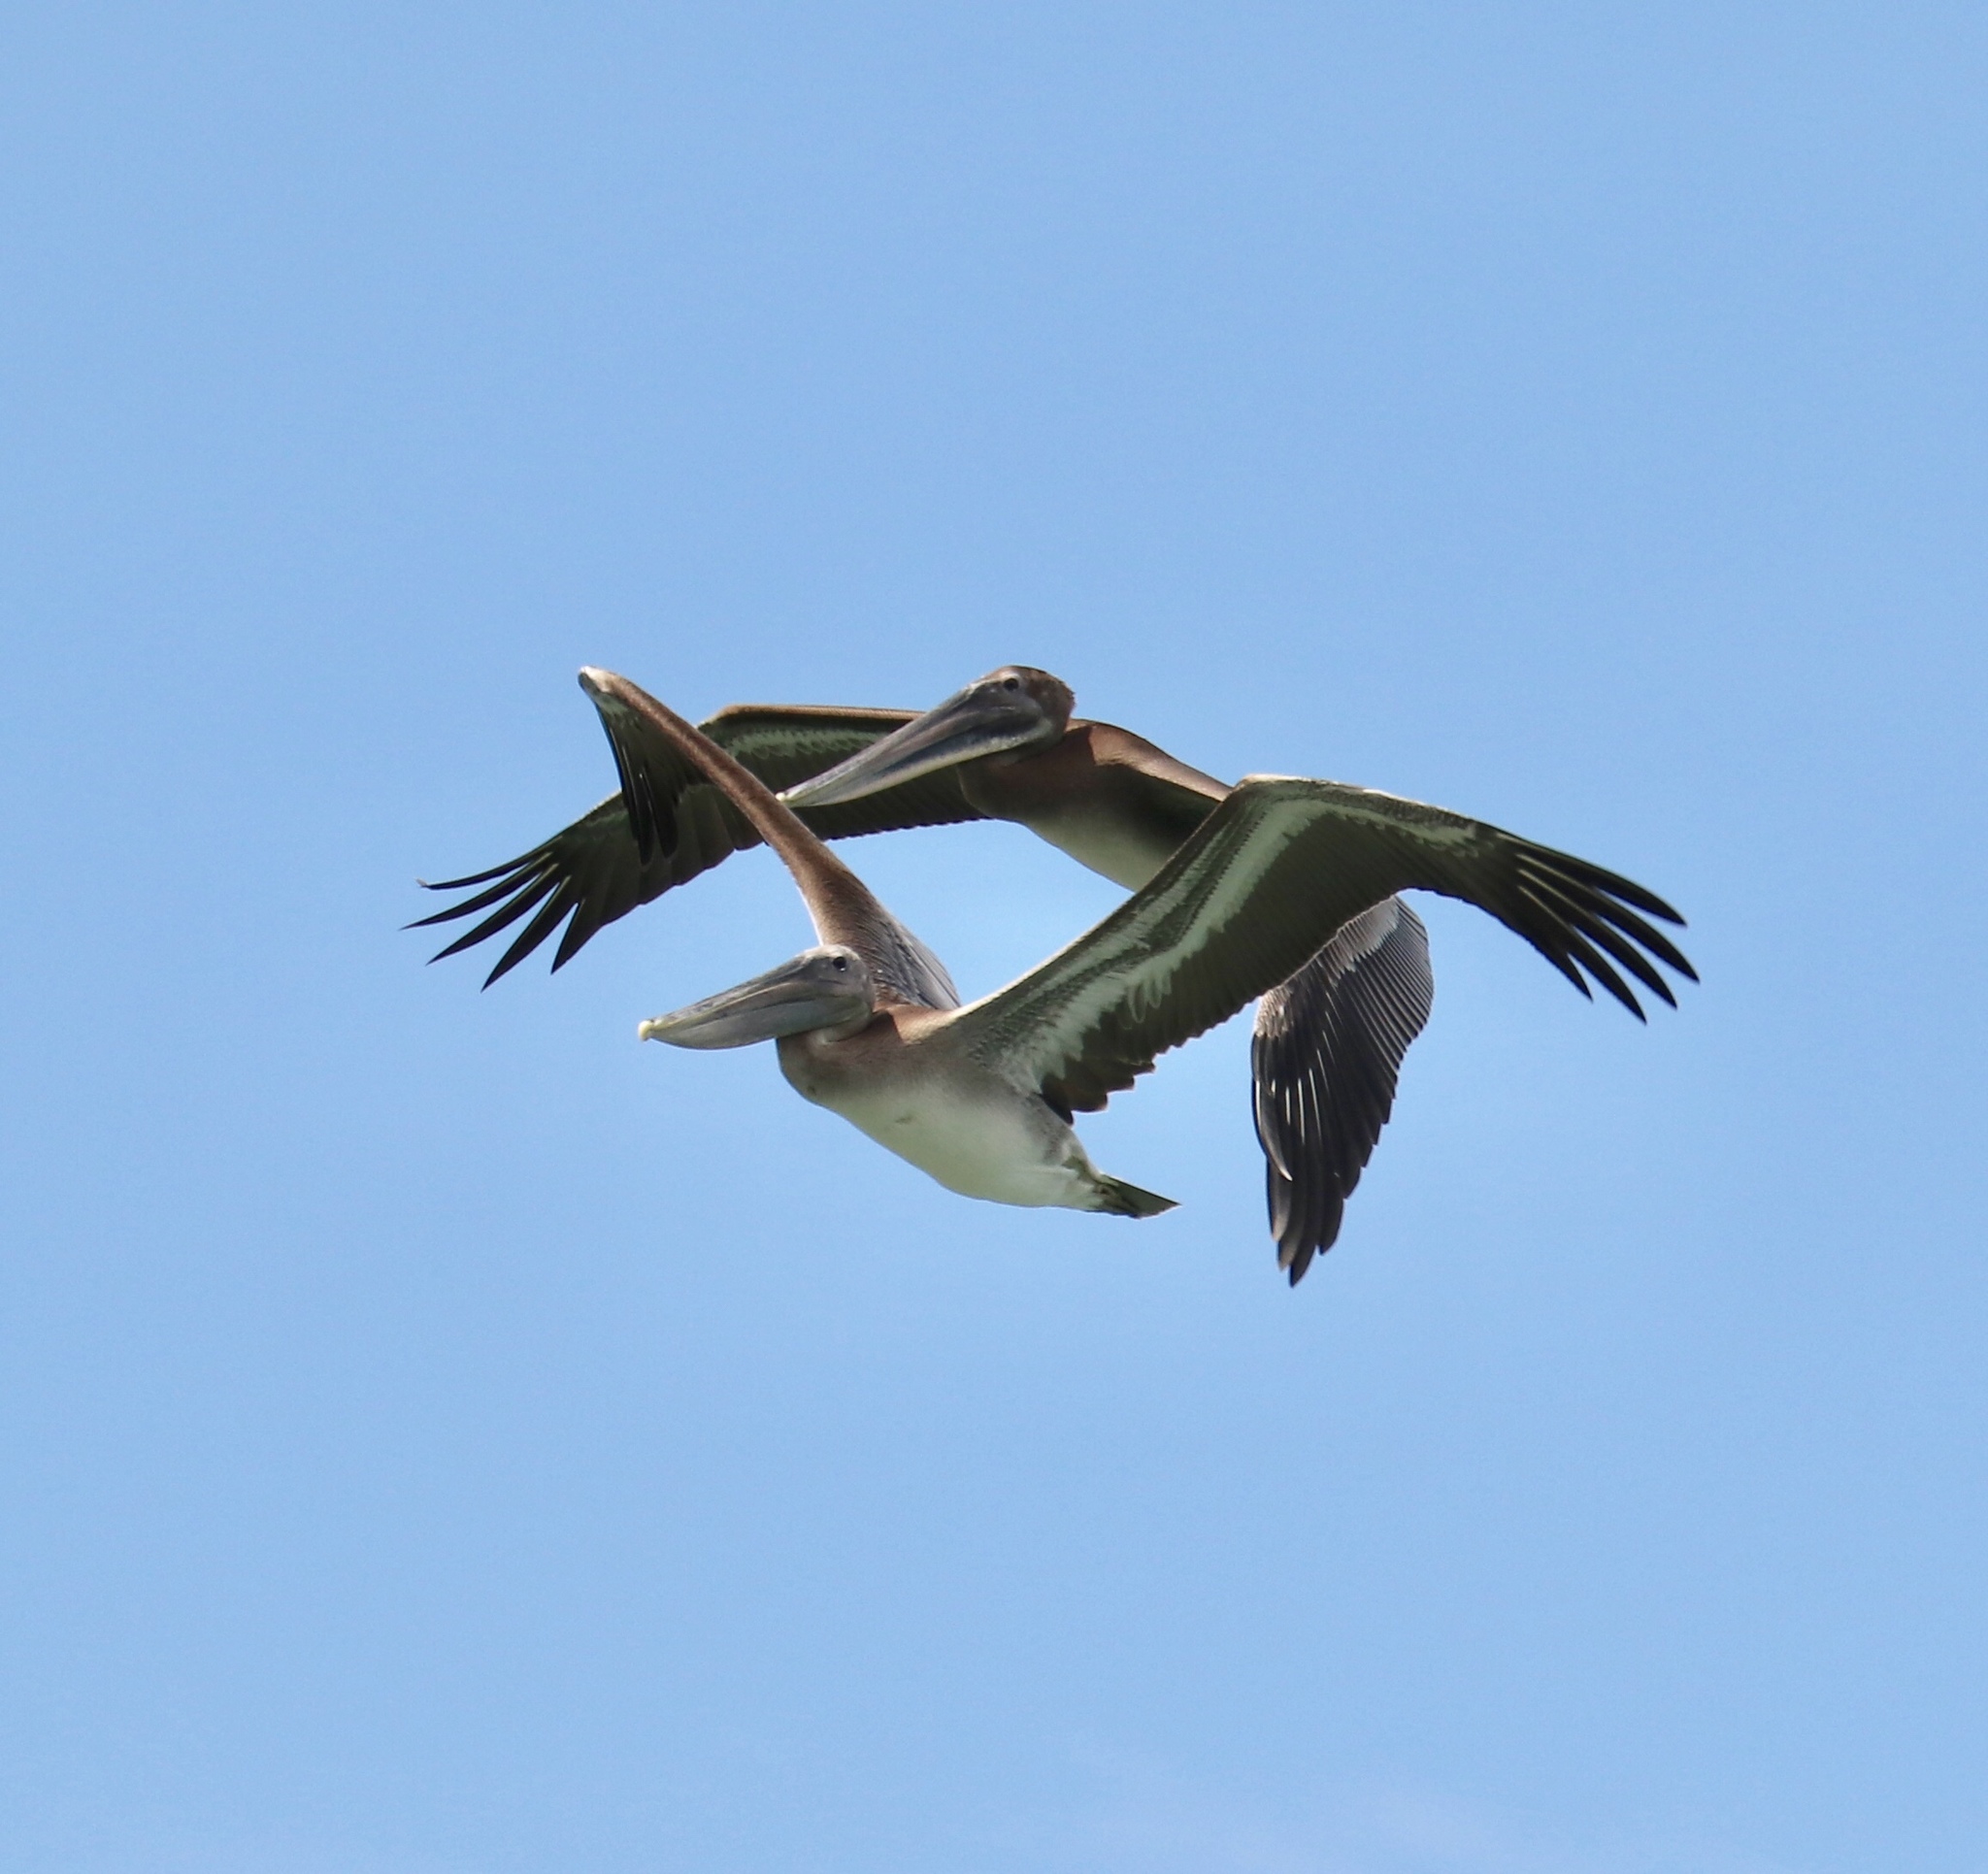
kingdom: Animalia
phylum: Chordata
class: Aves
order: Pelecaniformes
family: Pelecanidae
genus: Pelecanus
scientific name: Pelecanus occidentalis
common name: Brown pelican
